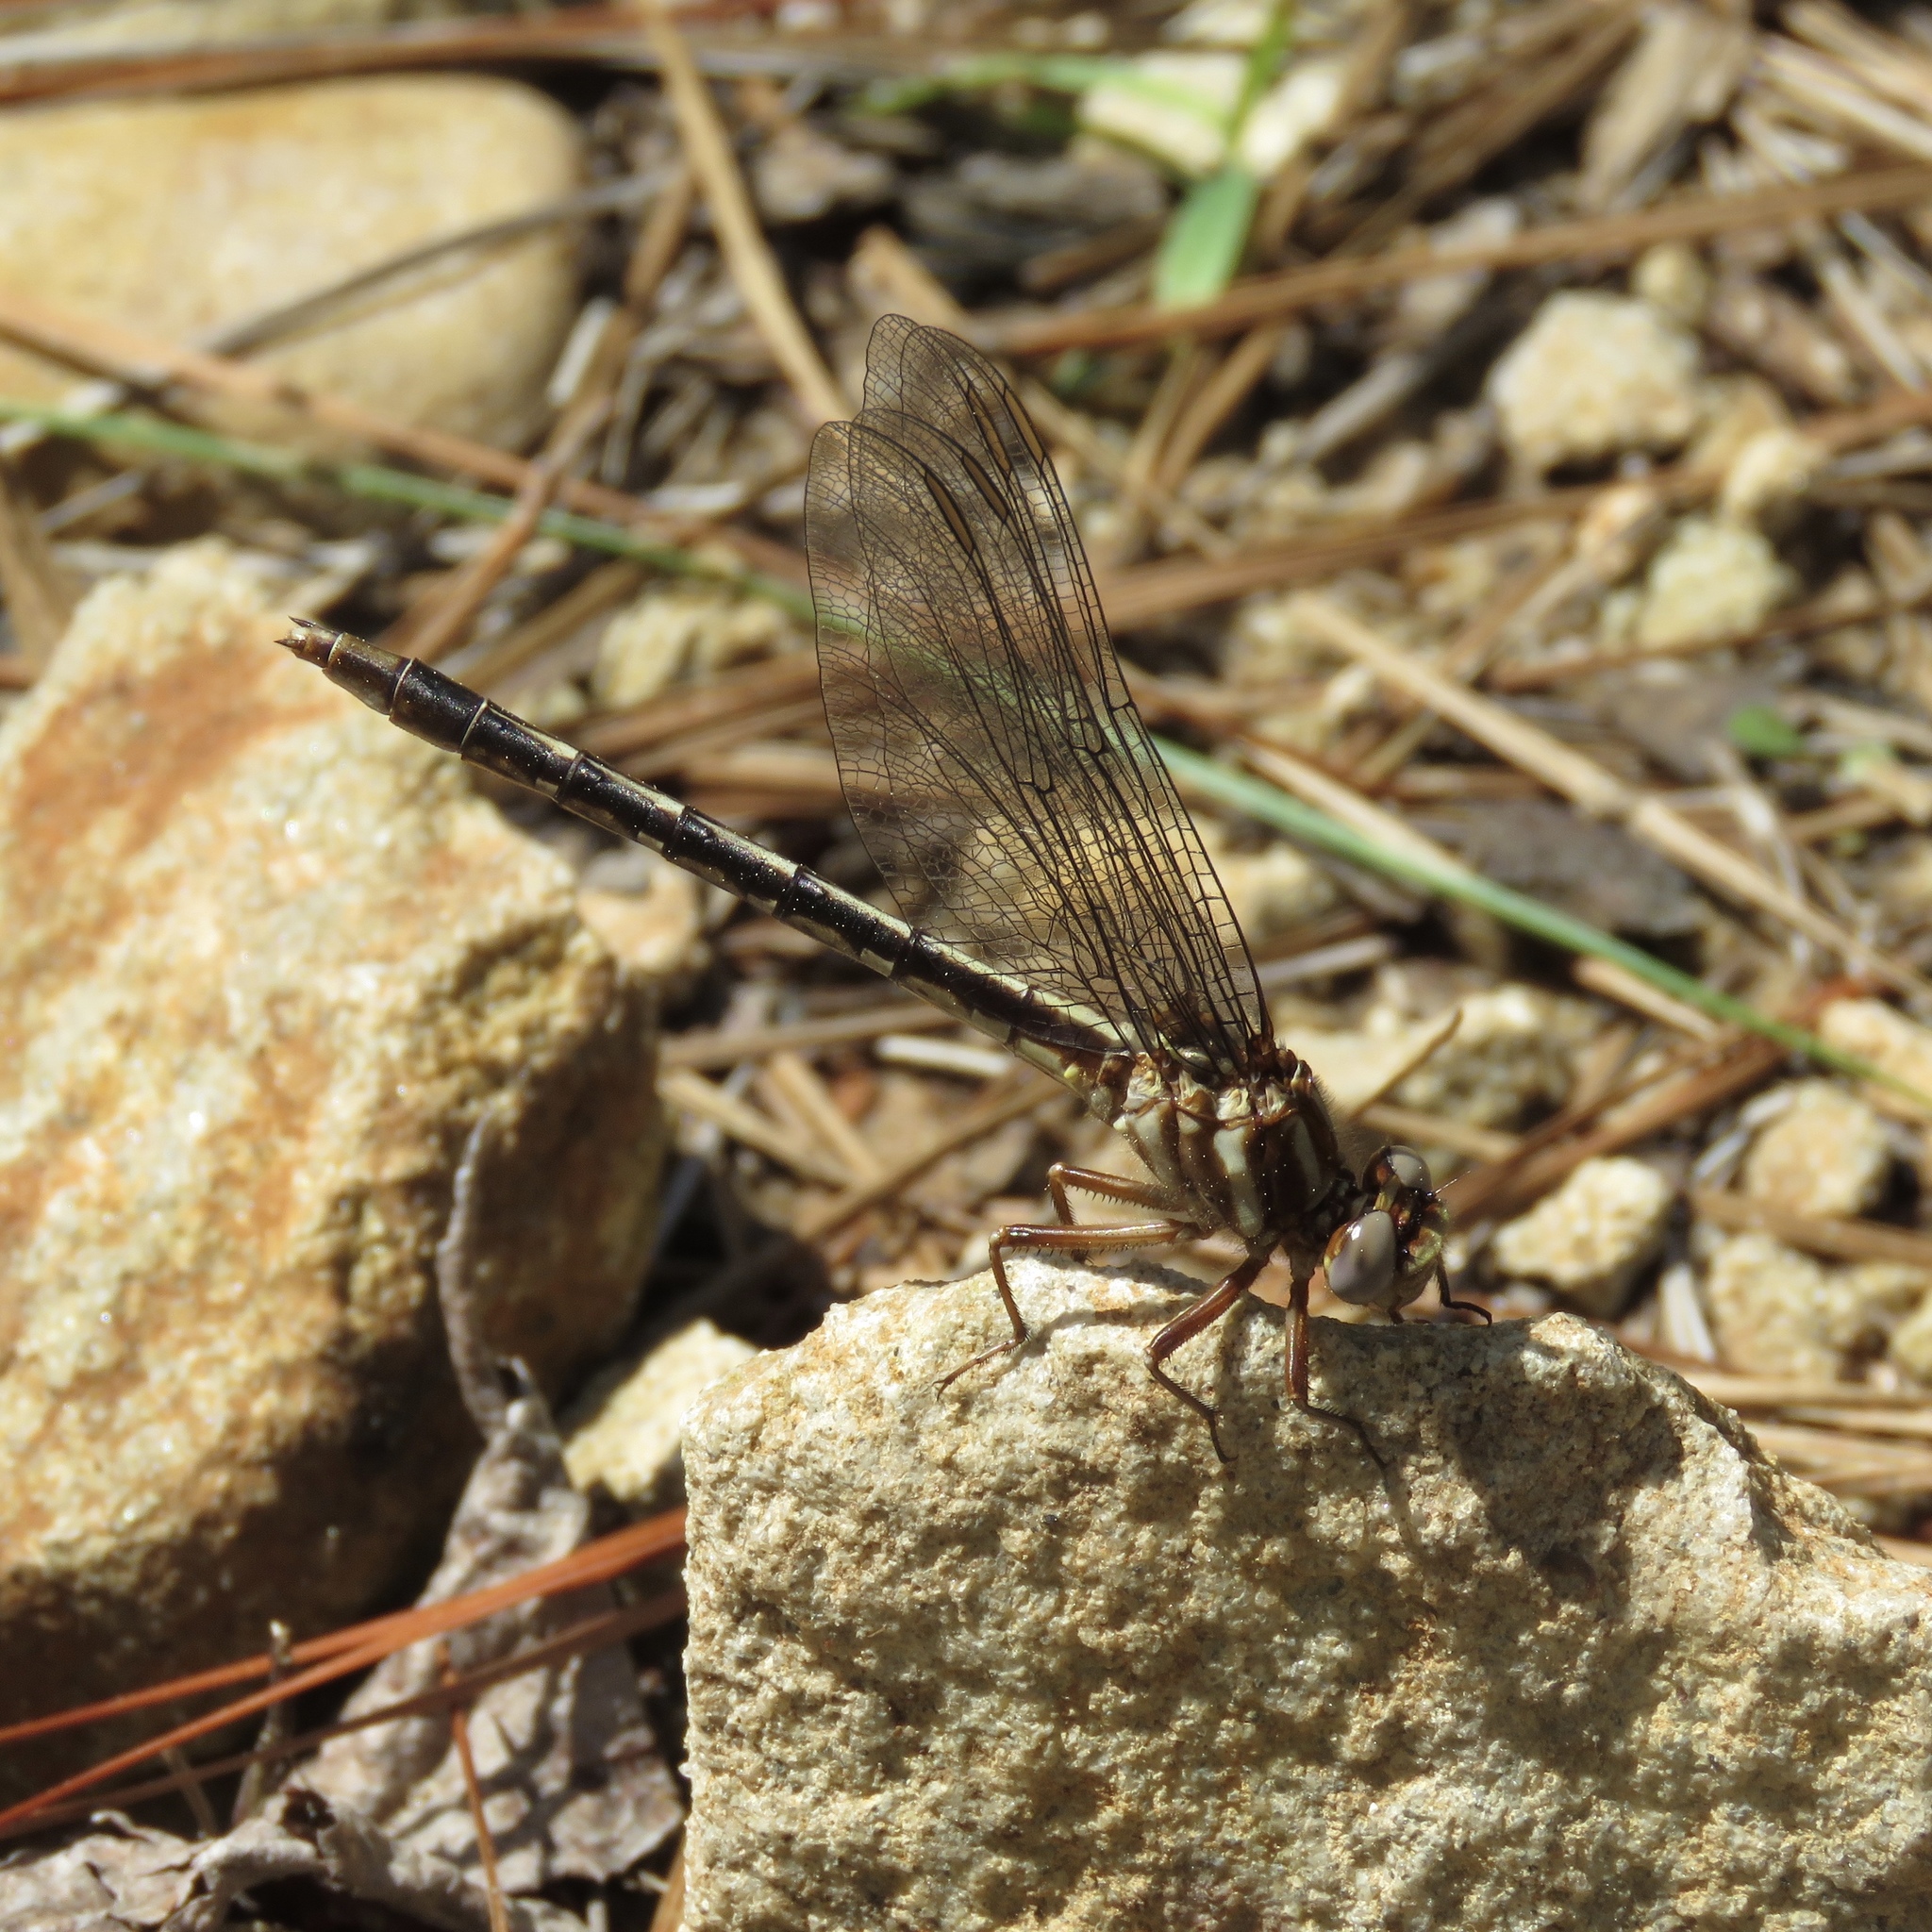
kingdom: Animalia
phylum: Arthropoda
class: Insecta
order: Odonata
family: Gomphidae
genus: Phanogomphus
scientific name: Phanogomphus lividus
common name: Ashy clubtail
